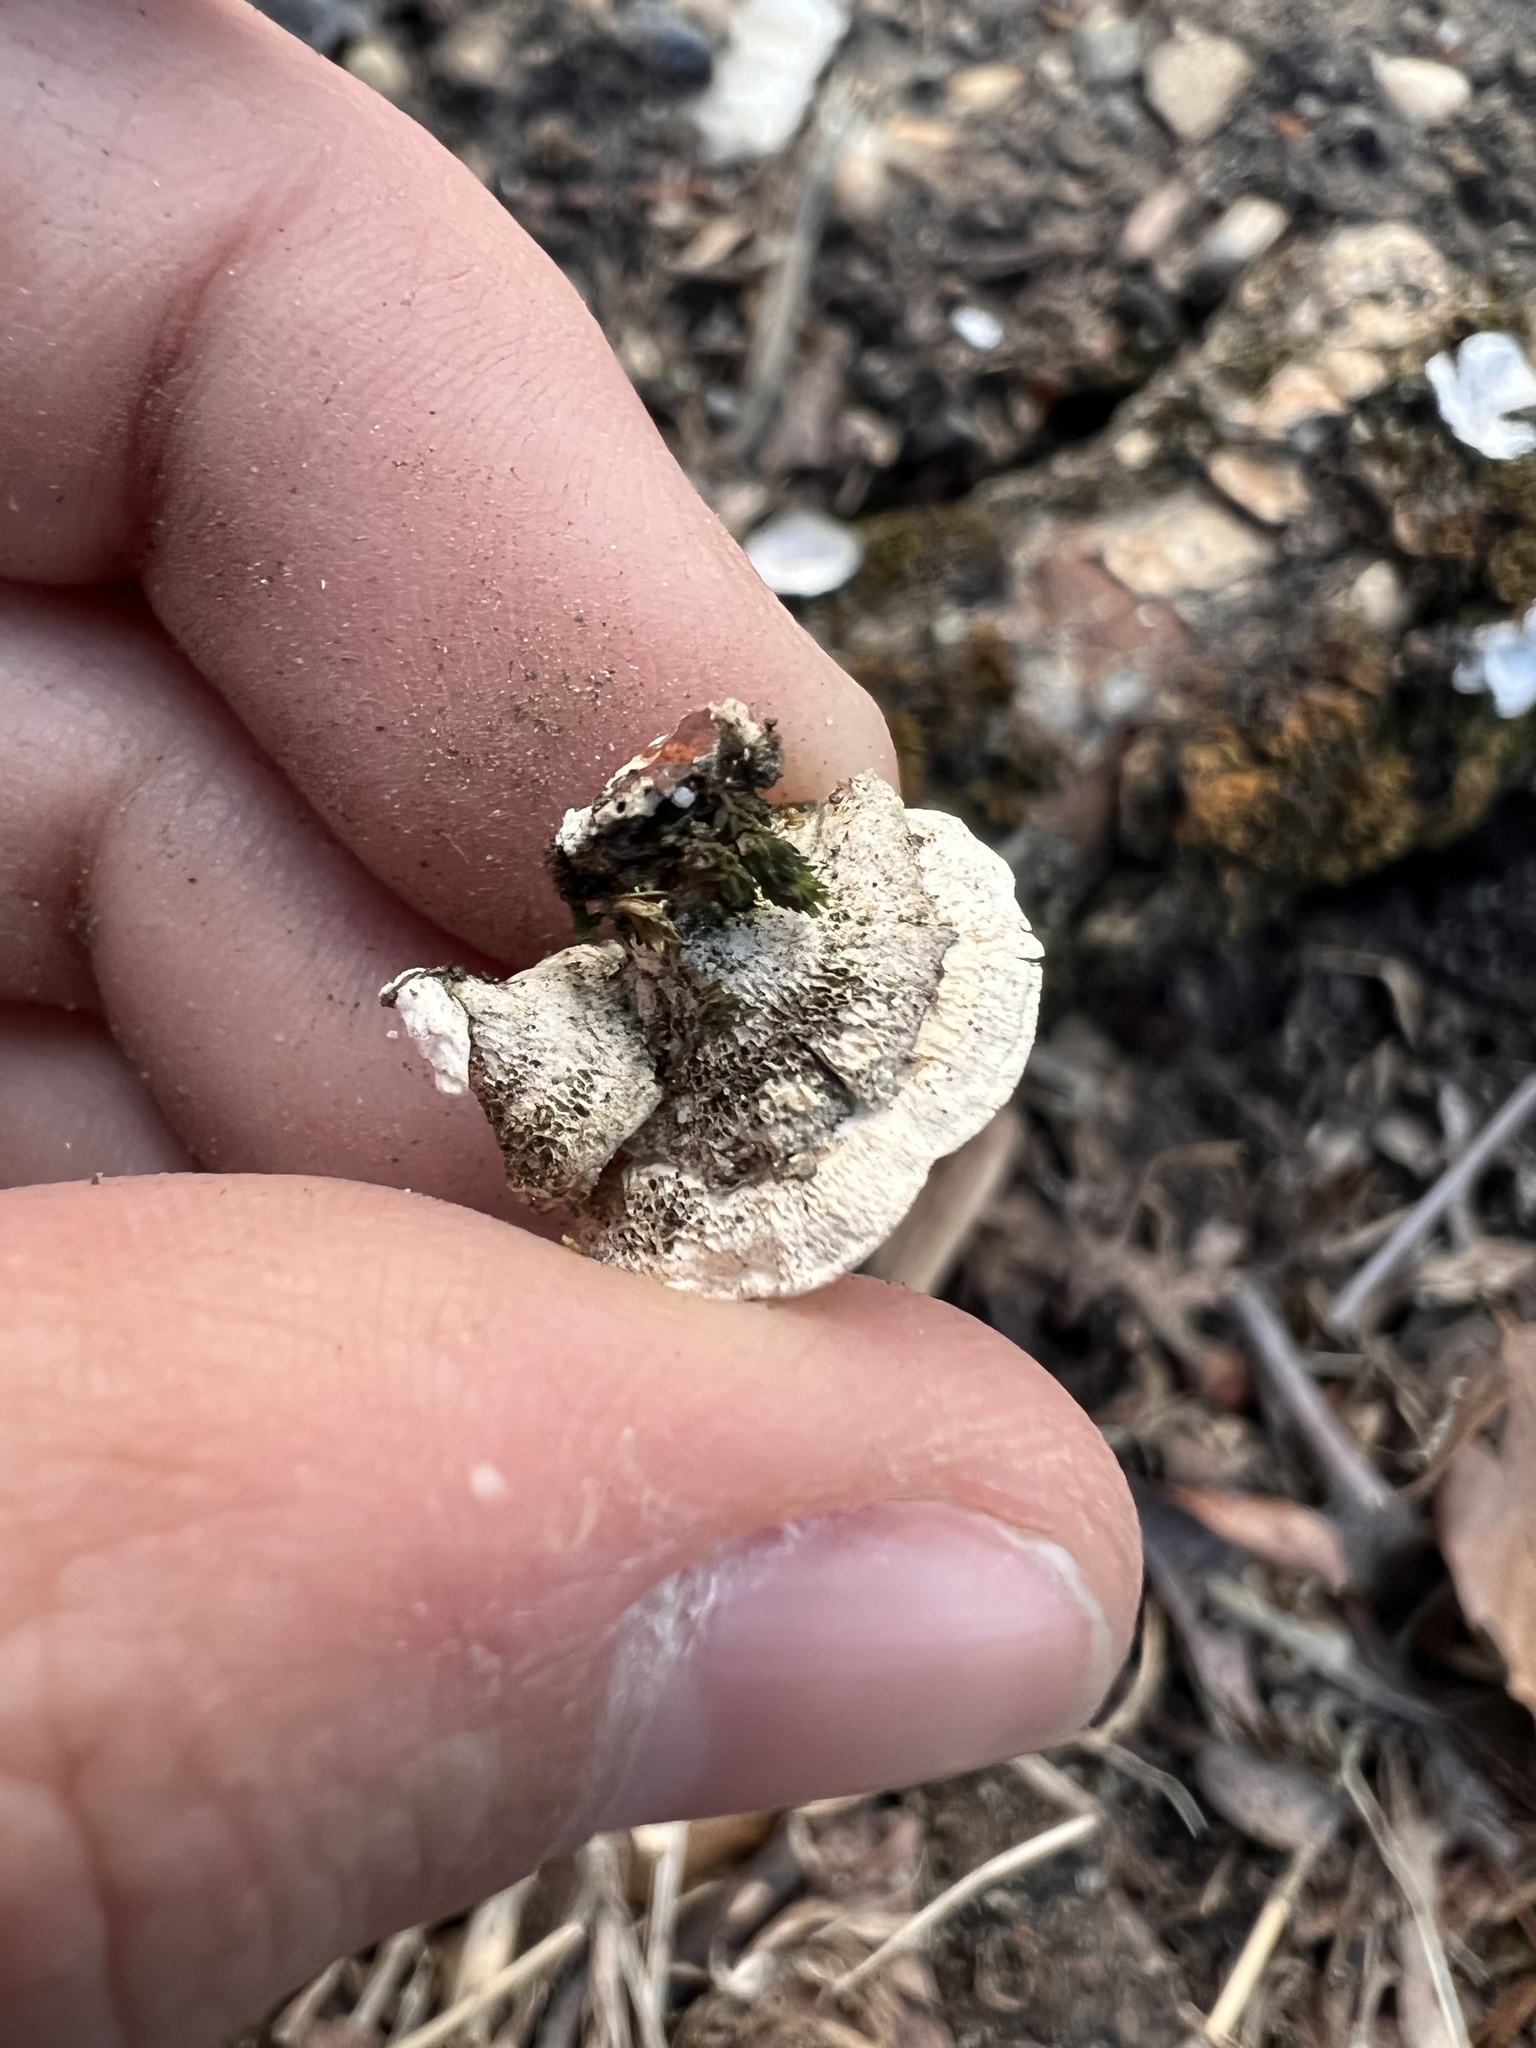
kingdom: Fungi
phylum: Basidiomycota
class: Agaricomycetes
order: Polyporales
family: Polyporaceae
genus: Poronidulus
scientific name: Poronidulus conchifer
